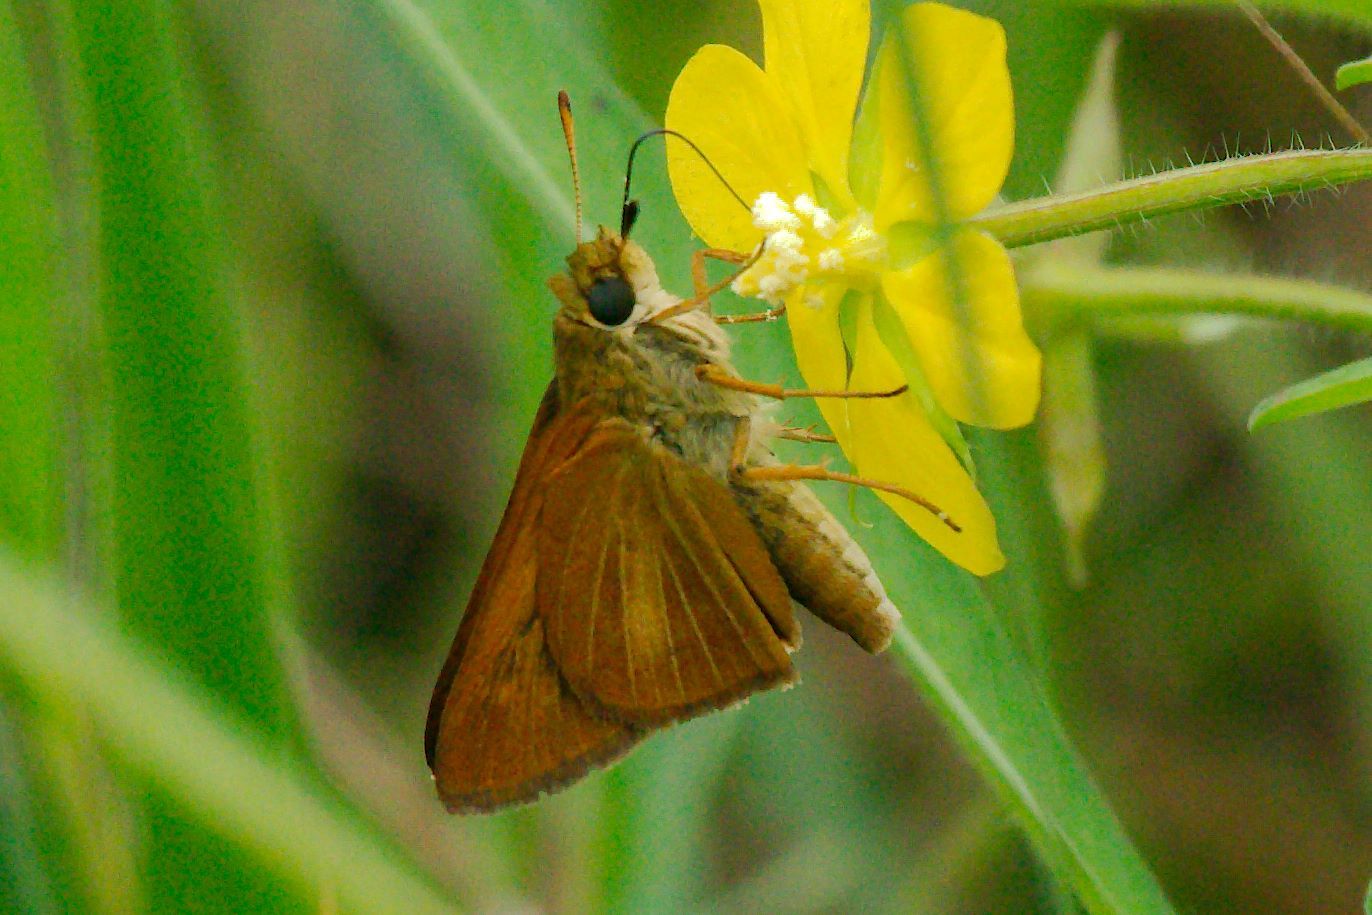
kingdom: Animalia
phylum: Arthropoda
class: Insecta
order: Lepidoptera
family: Hesperiidae
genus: Euphyes
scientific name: Euphyes dion
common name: Dion skipper
